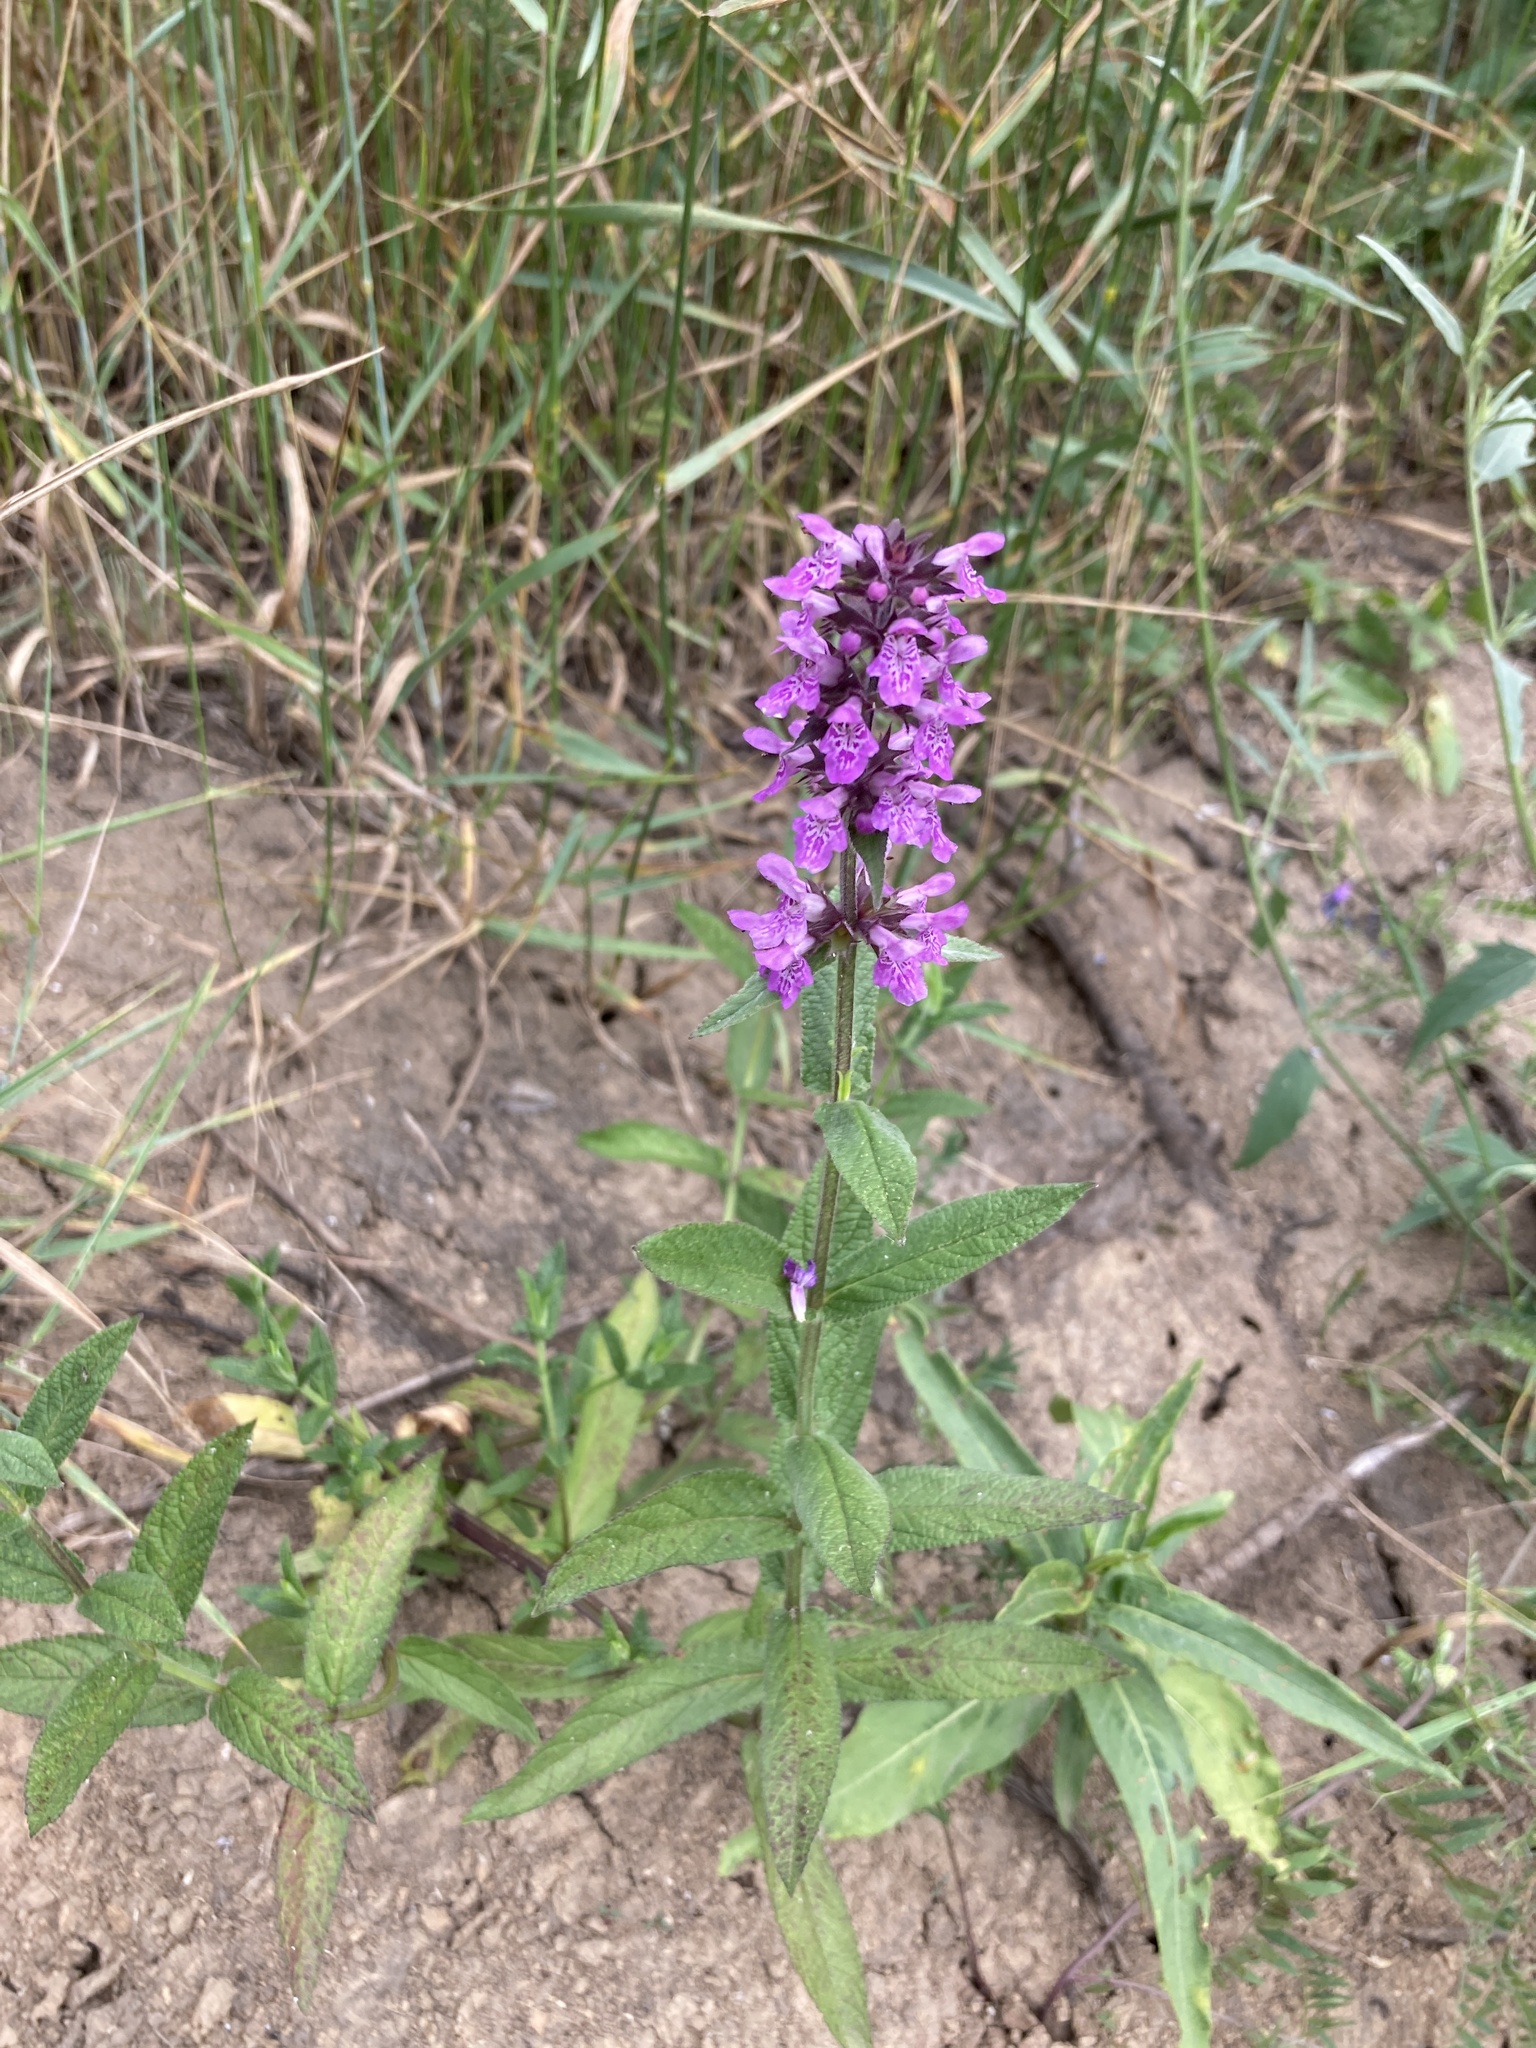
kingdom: Plantae
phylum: Tracheophyta
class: Magnoliopsida
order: Lamiales
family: Lamiaceae
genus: Stachys
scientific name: Stachys palustris
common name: Marsh woundwort
